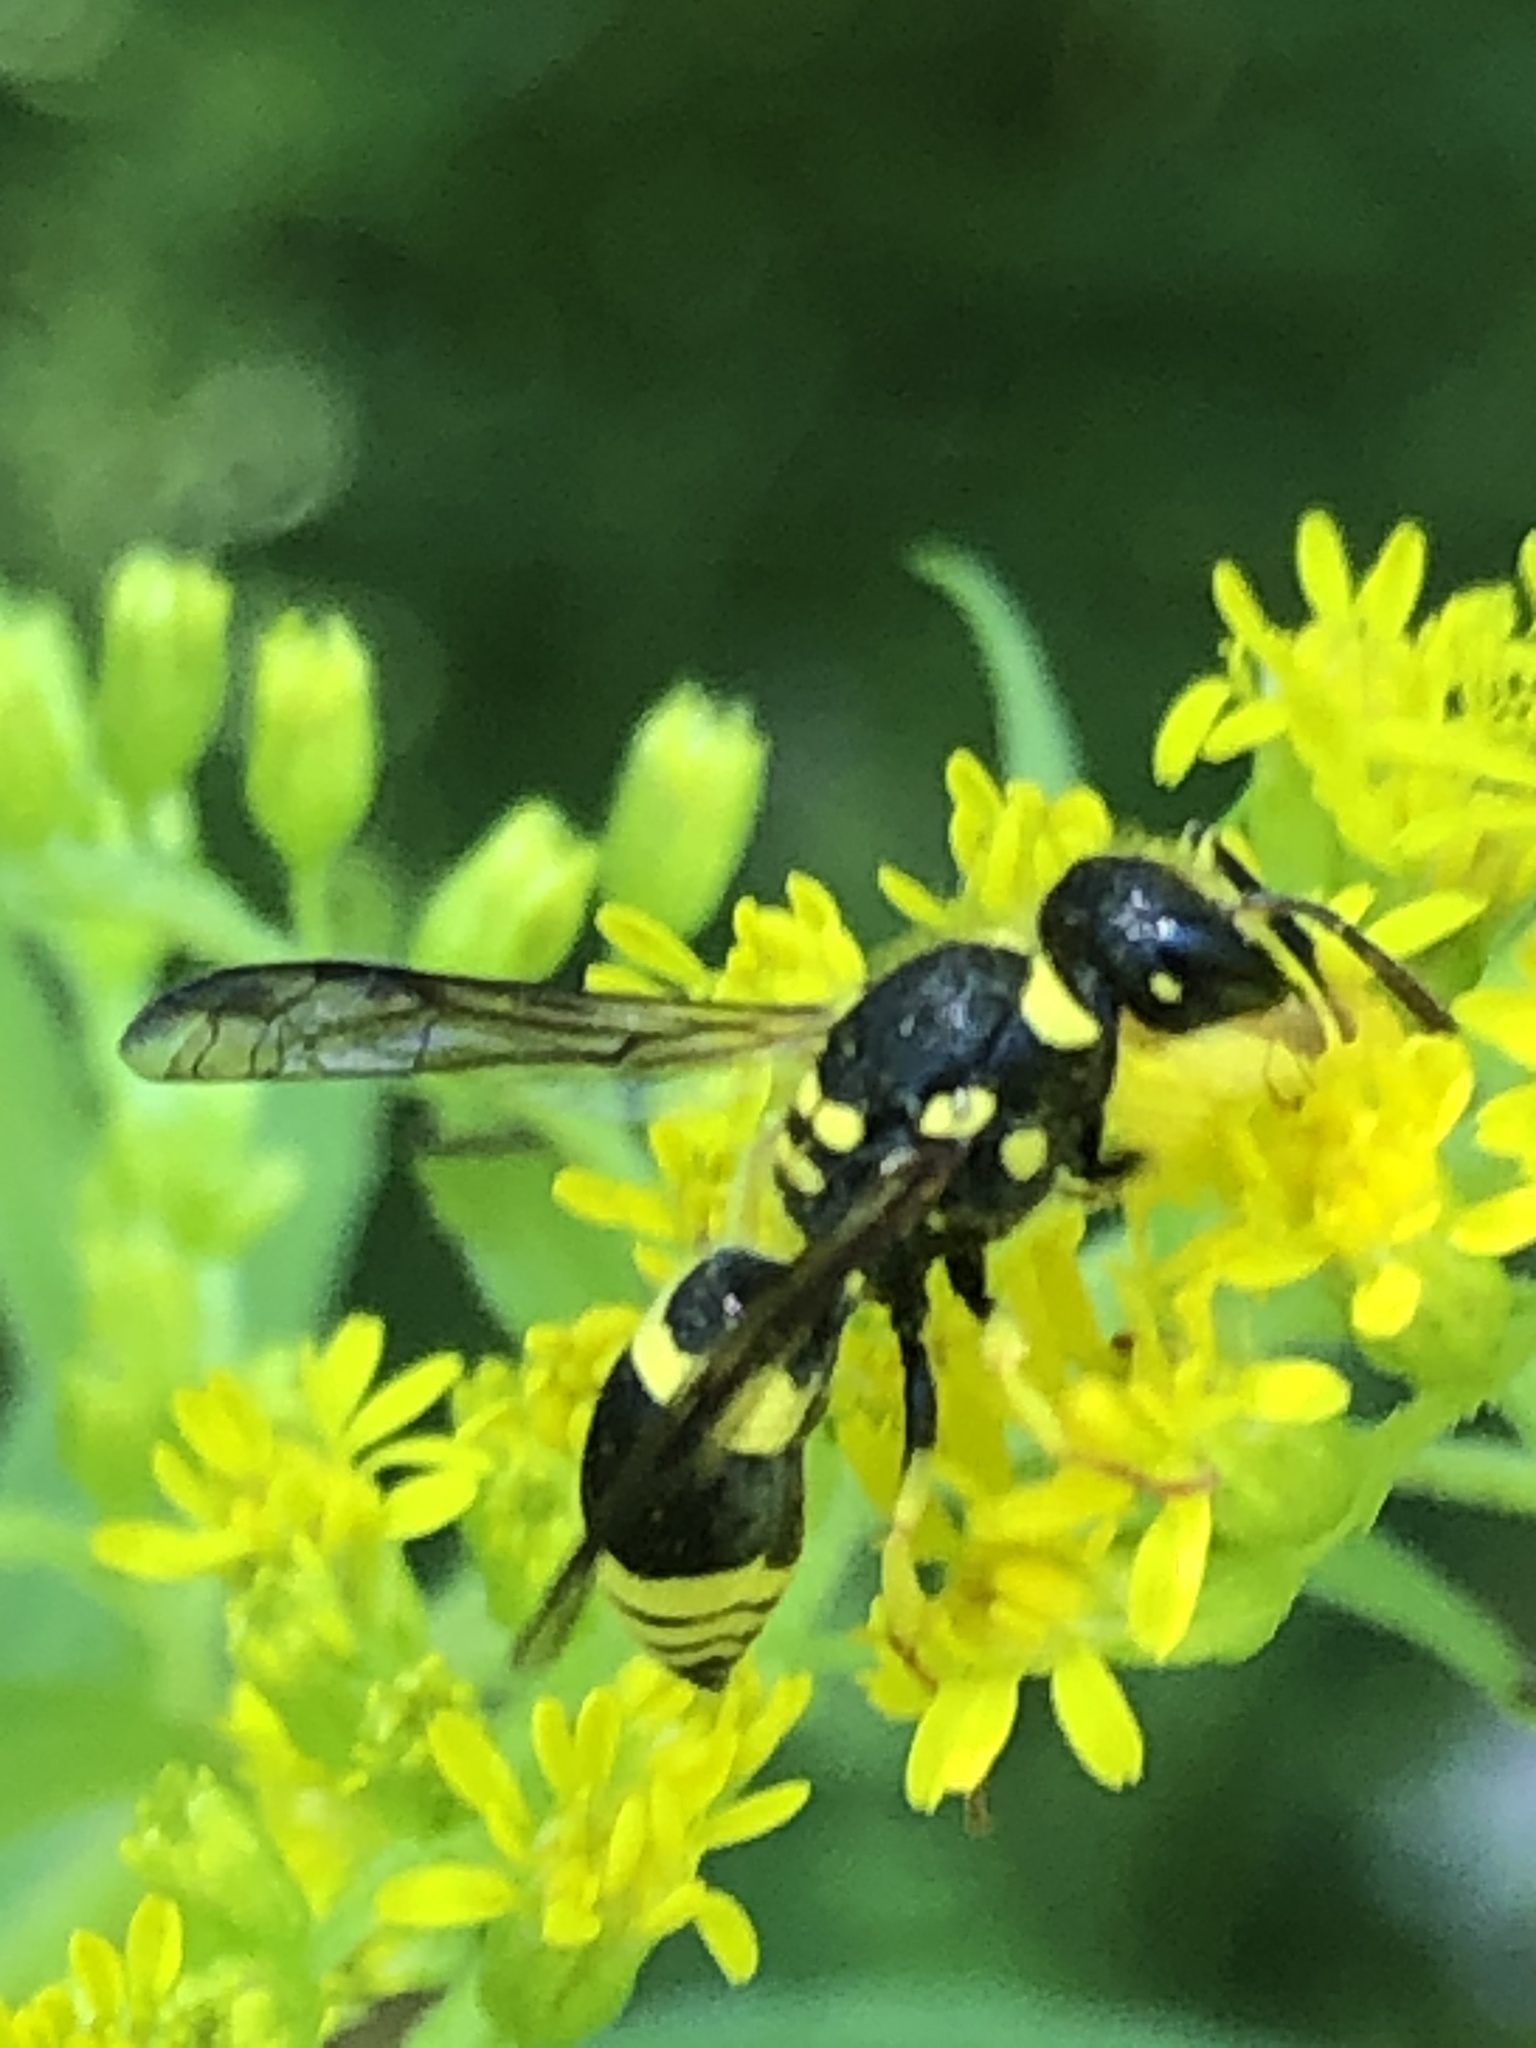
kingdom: Animalia
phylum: Arthropoda
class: Insecta
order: Hymenoptera
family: Vespidae
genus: Ancistrocerus
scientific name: Ancistrocerus gazella
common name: European tube wasp
